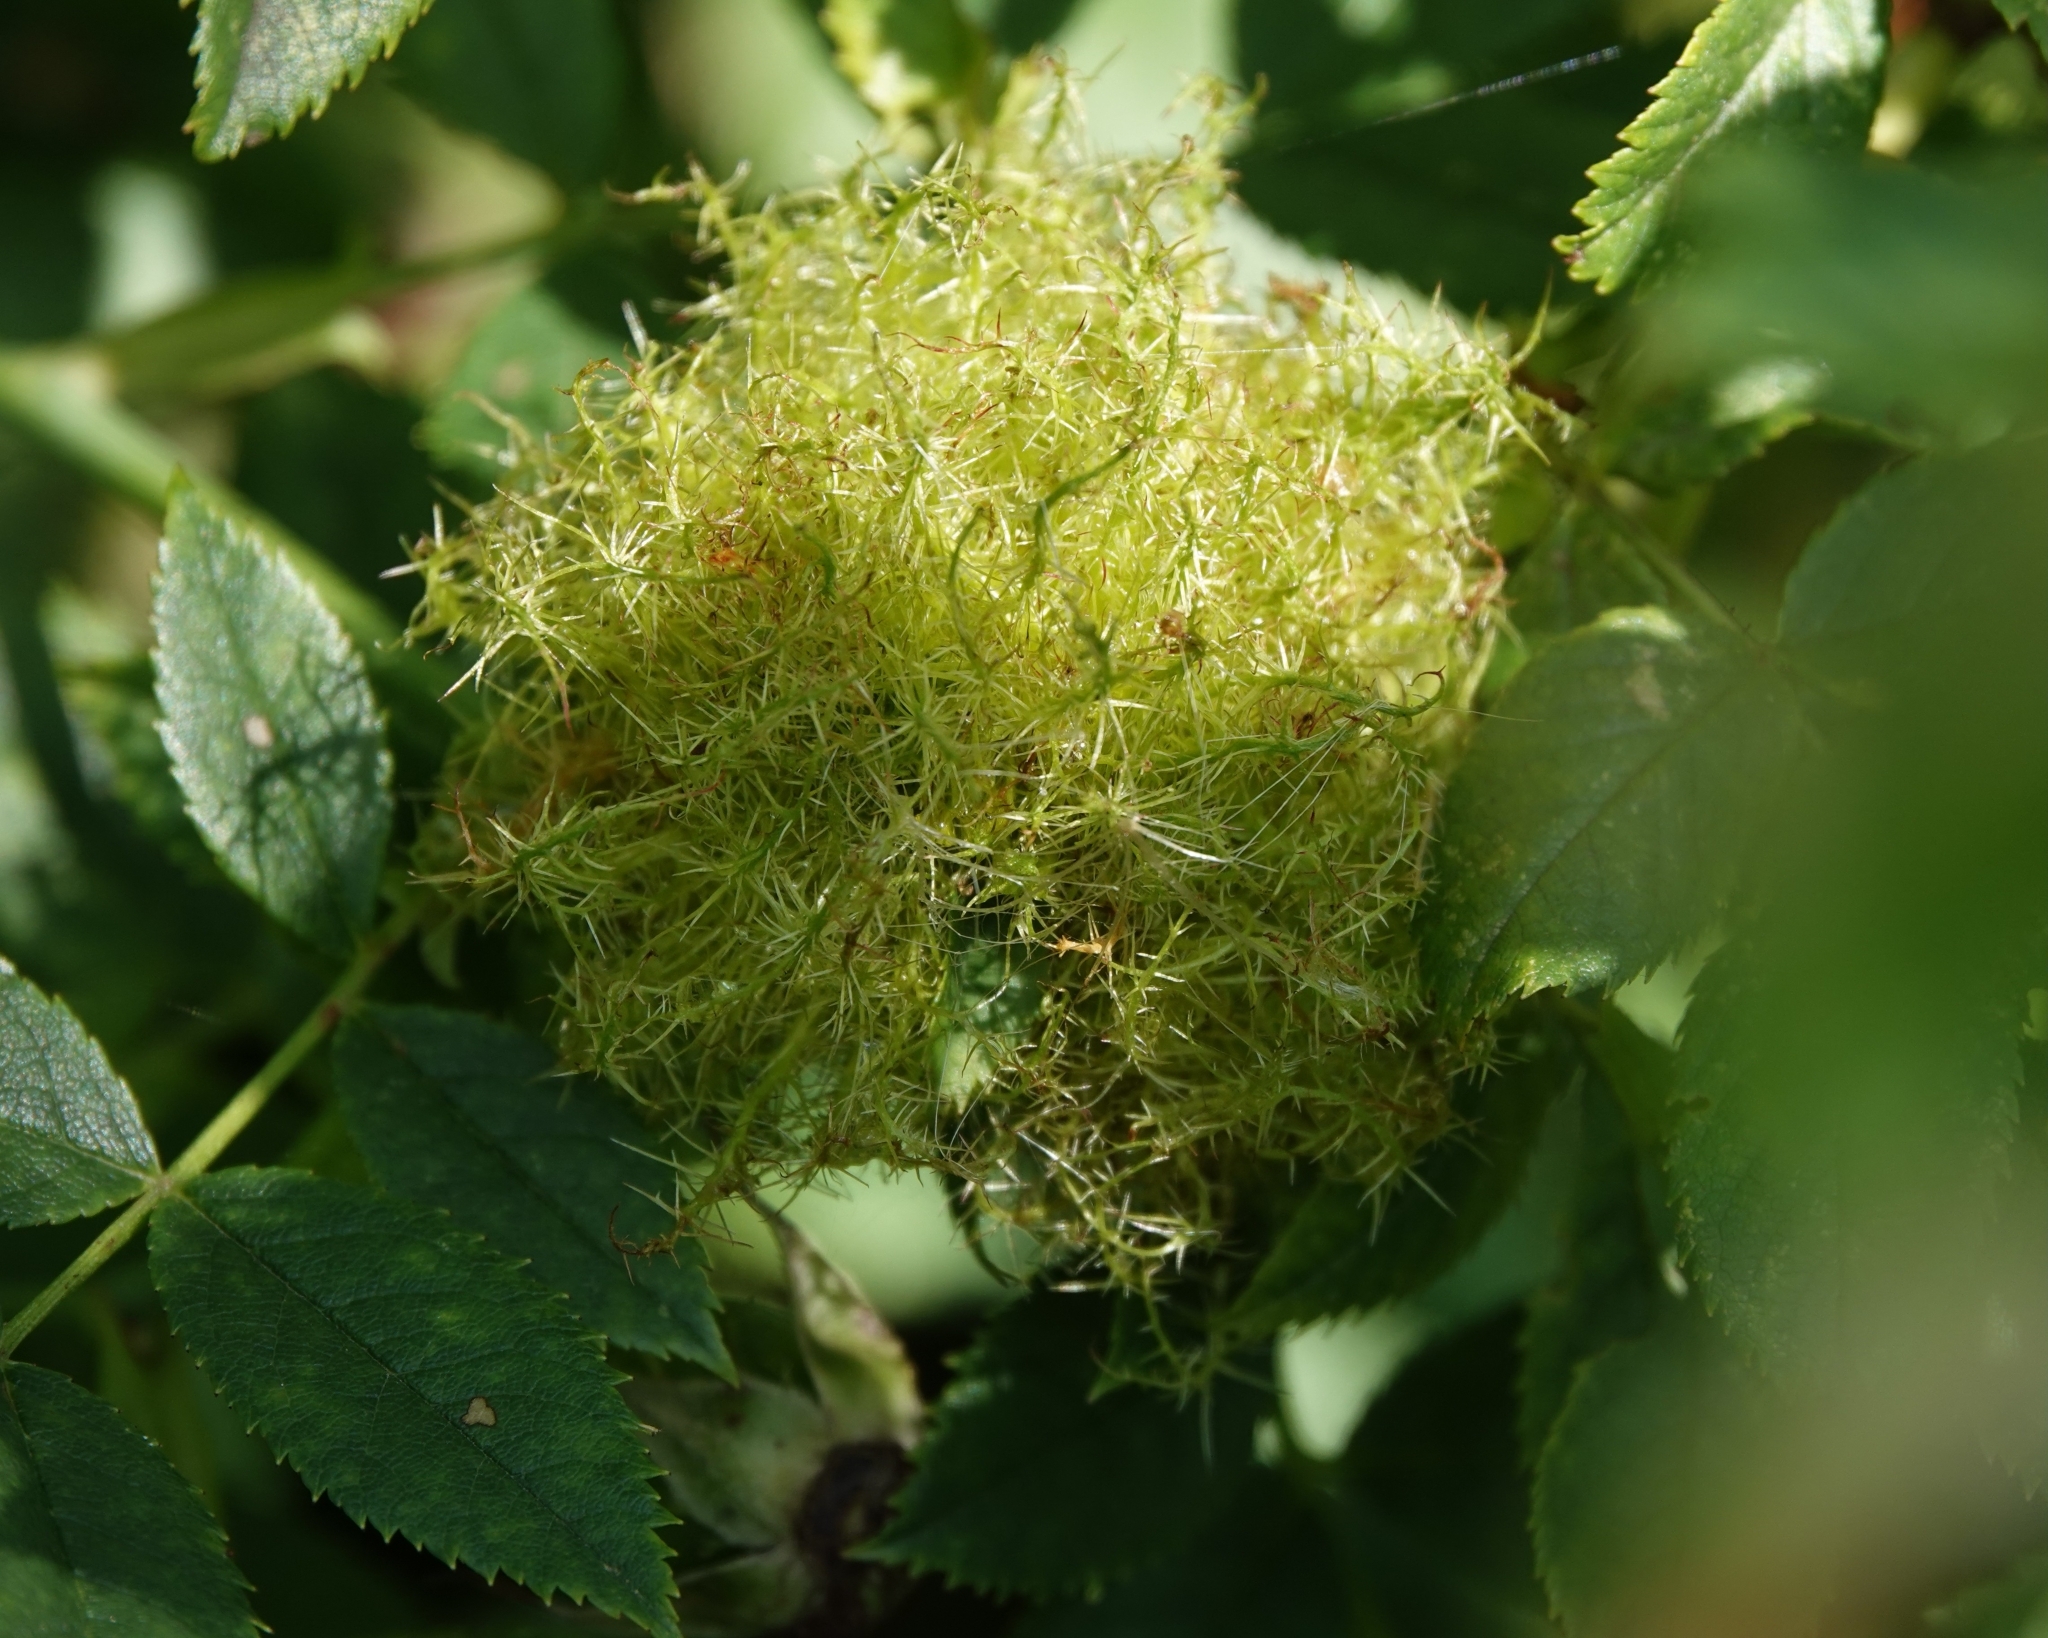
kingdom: Animalia
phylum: Arthropoda
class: Insecta
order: Hymenoptera
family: Cynipidae
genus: Diplolepis
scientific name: Diplolepis rosae
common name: Bedeguar gall
